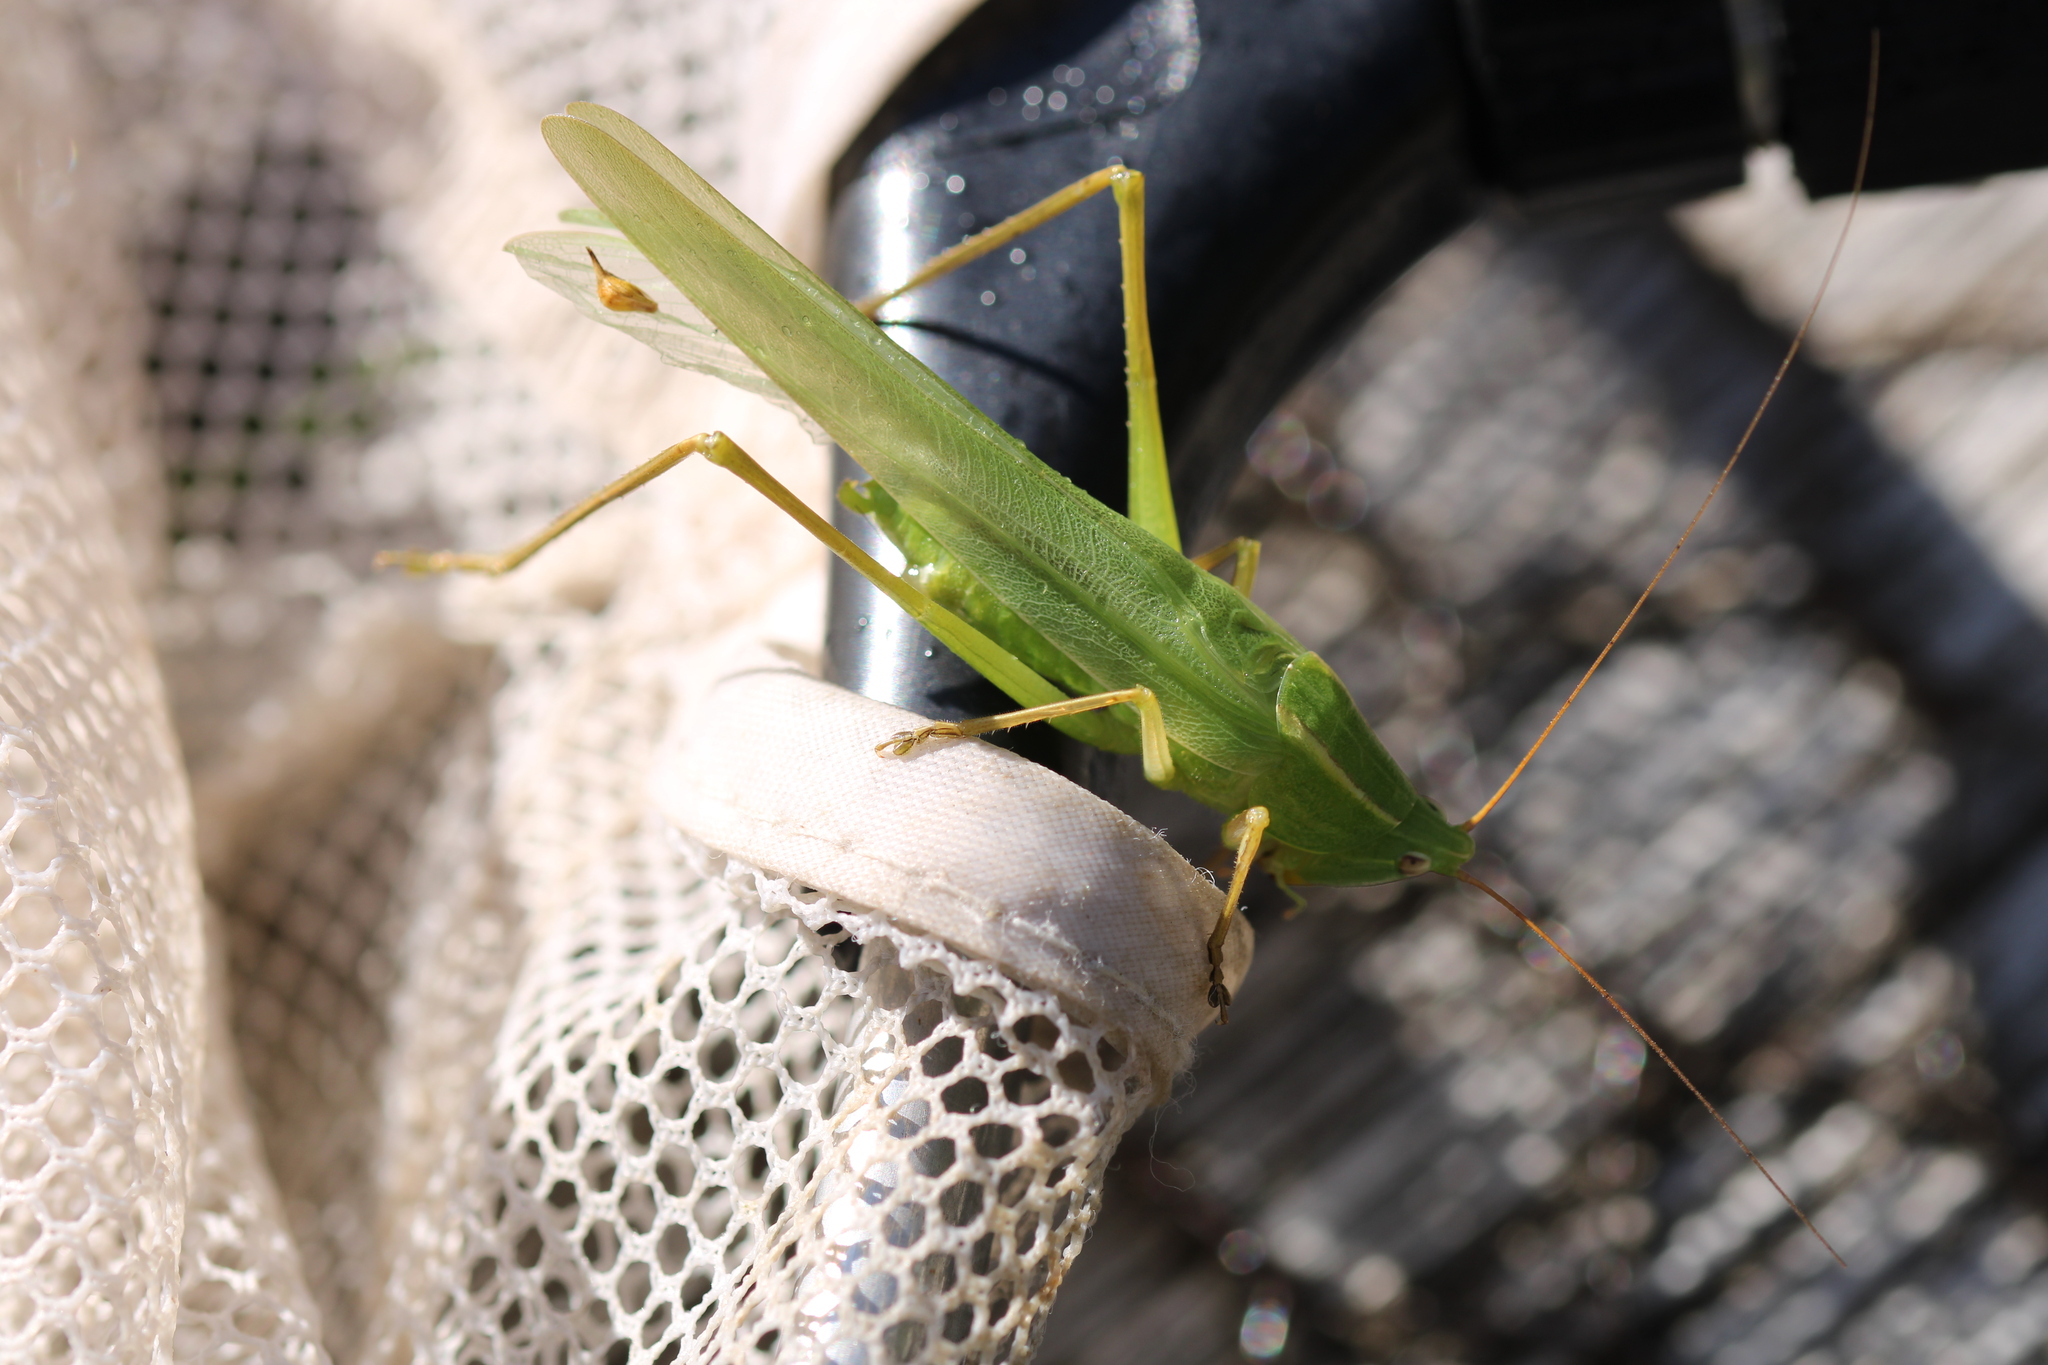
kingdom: Animalia
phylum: Arthropoda
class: Insecta
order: Orthoptera
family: Tettigoniidae
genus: Ruspolia
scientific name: Ruspolia nitidula
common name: Large conehead
